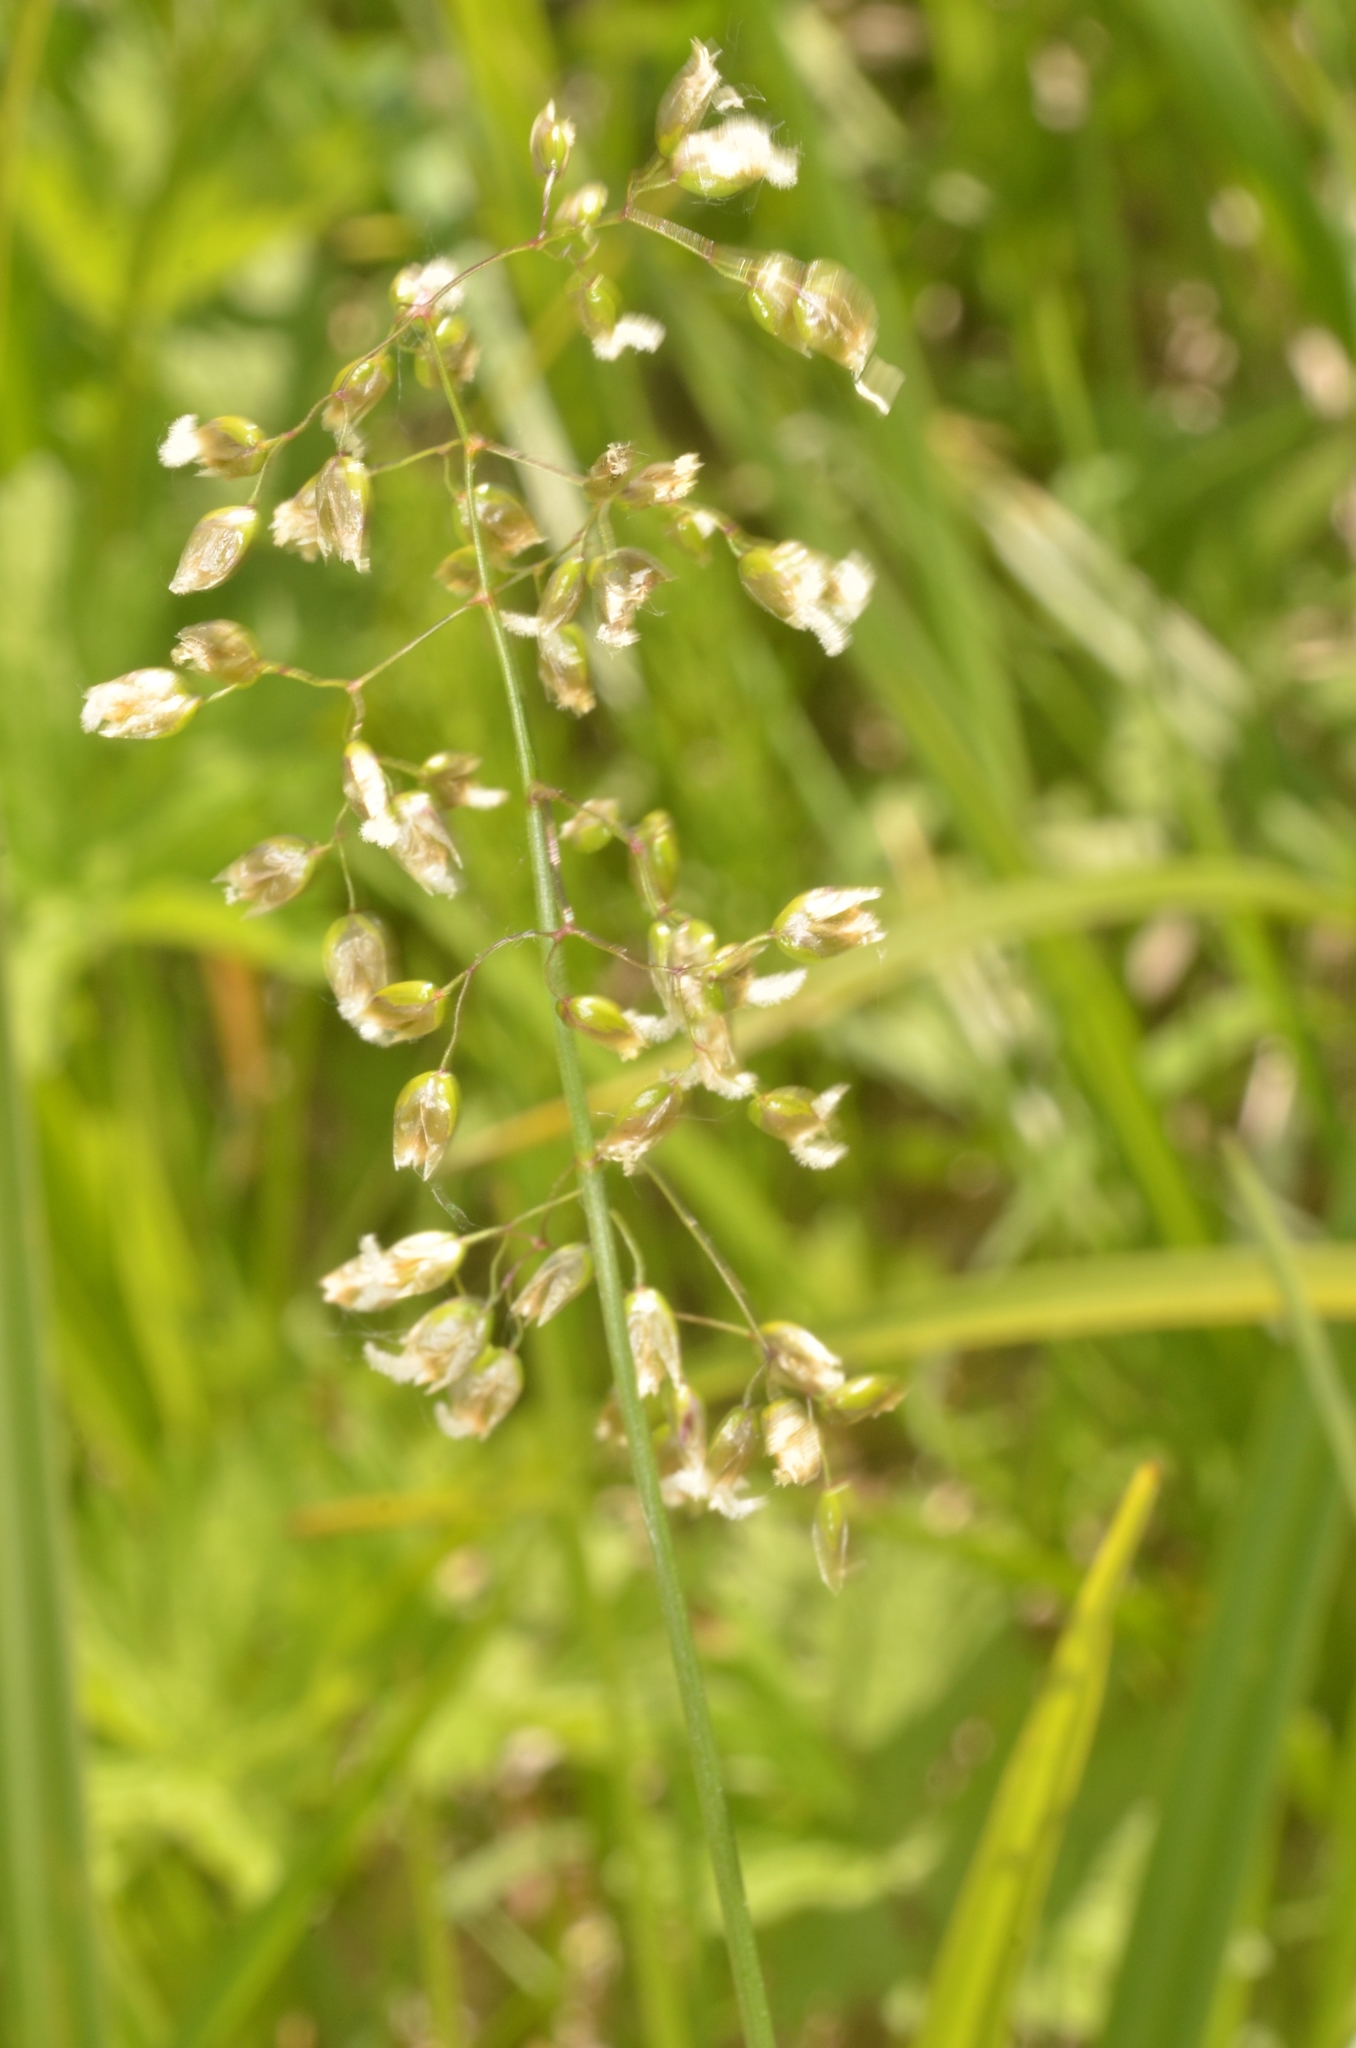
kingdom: Plantae
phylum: Tracheophyta
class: Liliopsida
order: Poales
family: Poaceae
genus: Anthoxanthum
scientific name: Anthoxanthum nitens
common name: Holy grass
